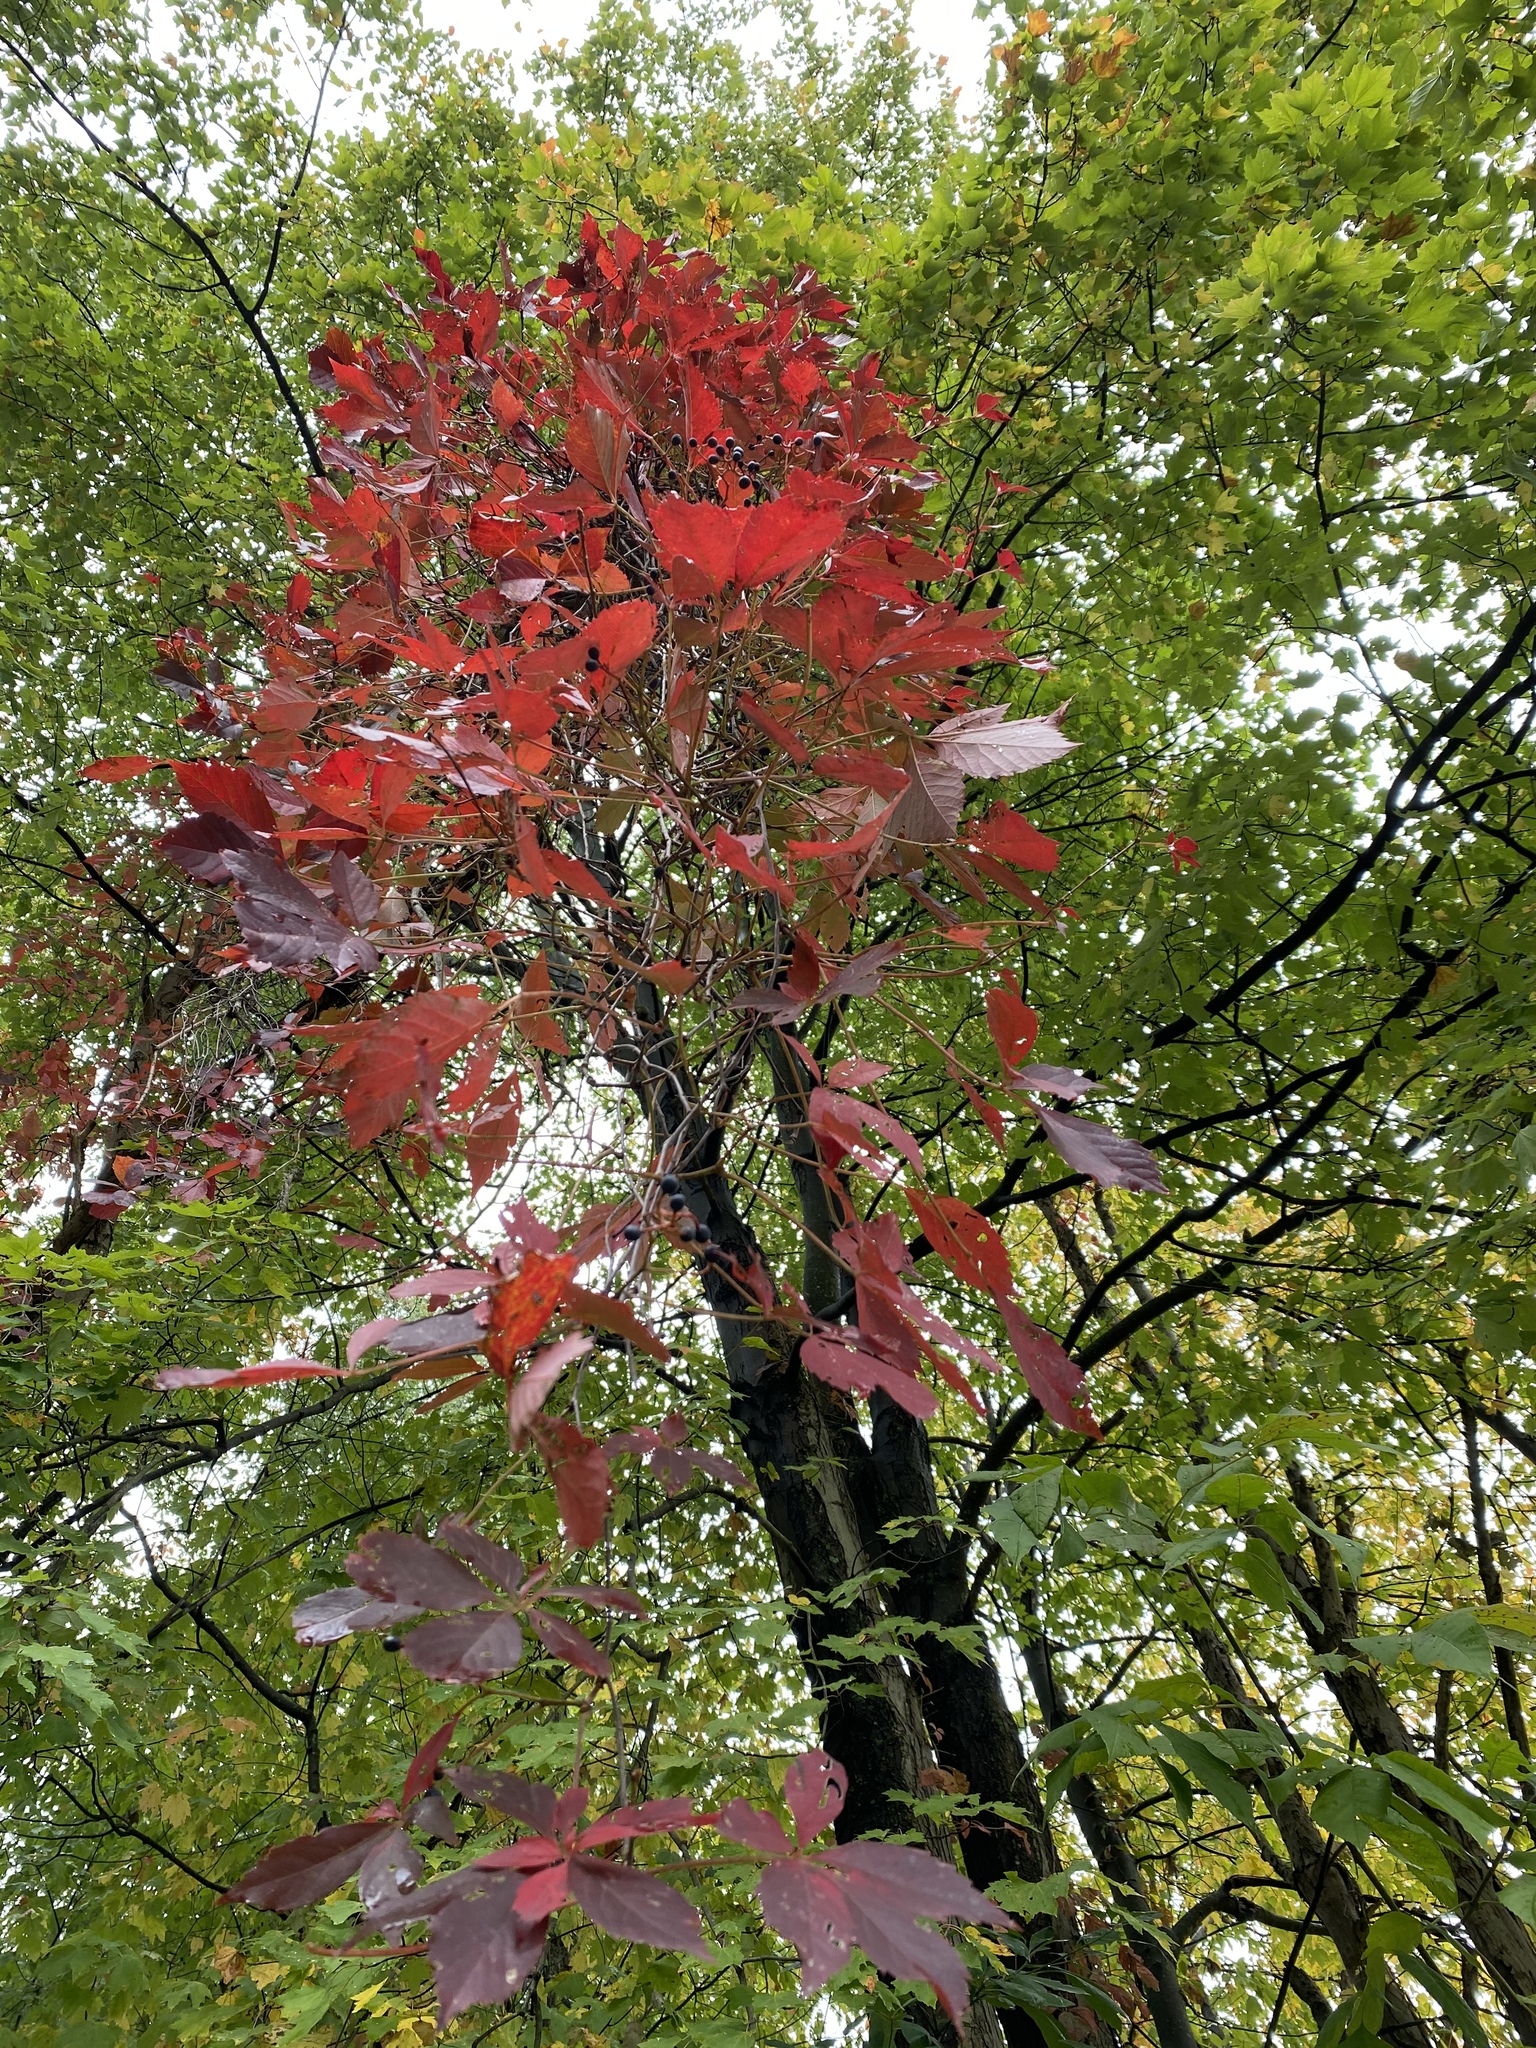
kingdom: Plantae
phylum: Tracheophyta
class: Magnoliopsida
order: Vitales
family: Vitaceae
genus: Parthenocissus
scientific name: Parthenocissus quinquefolia
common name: Virginia-creeper
